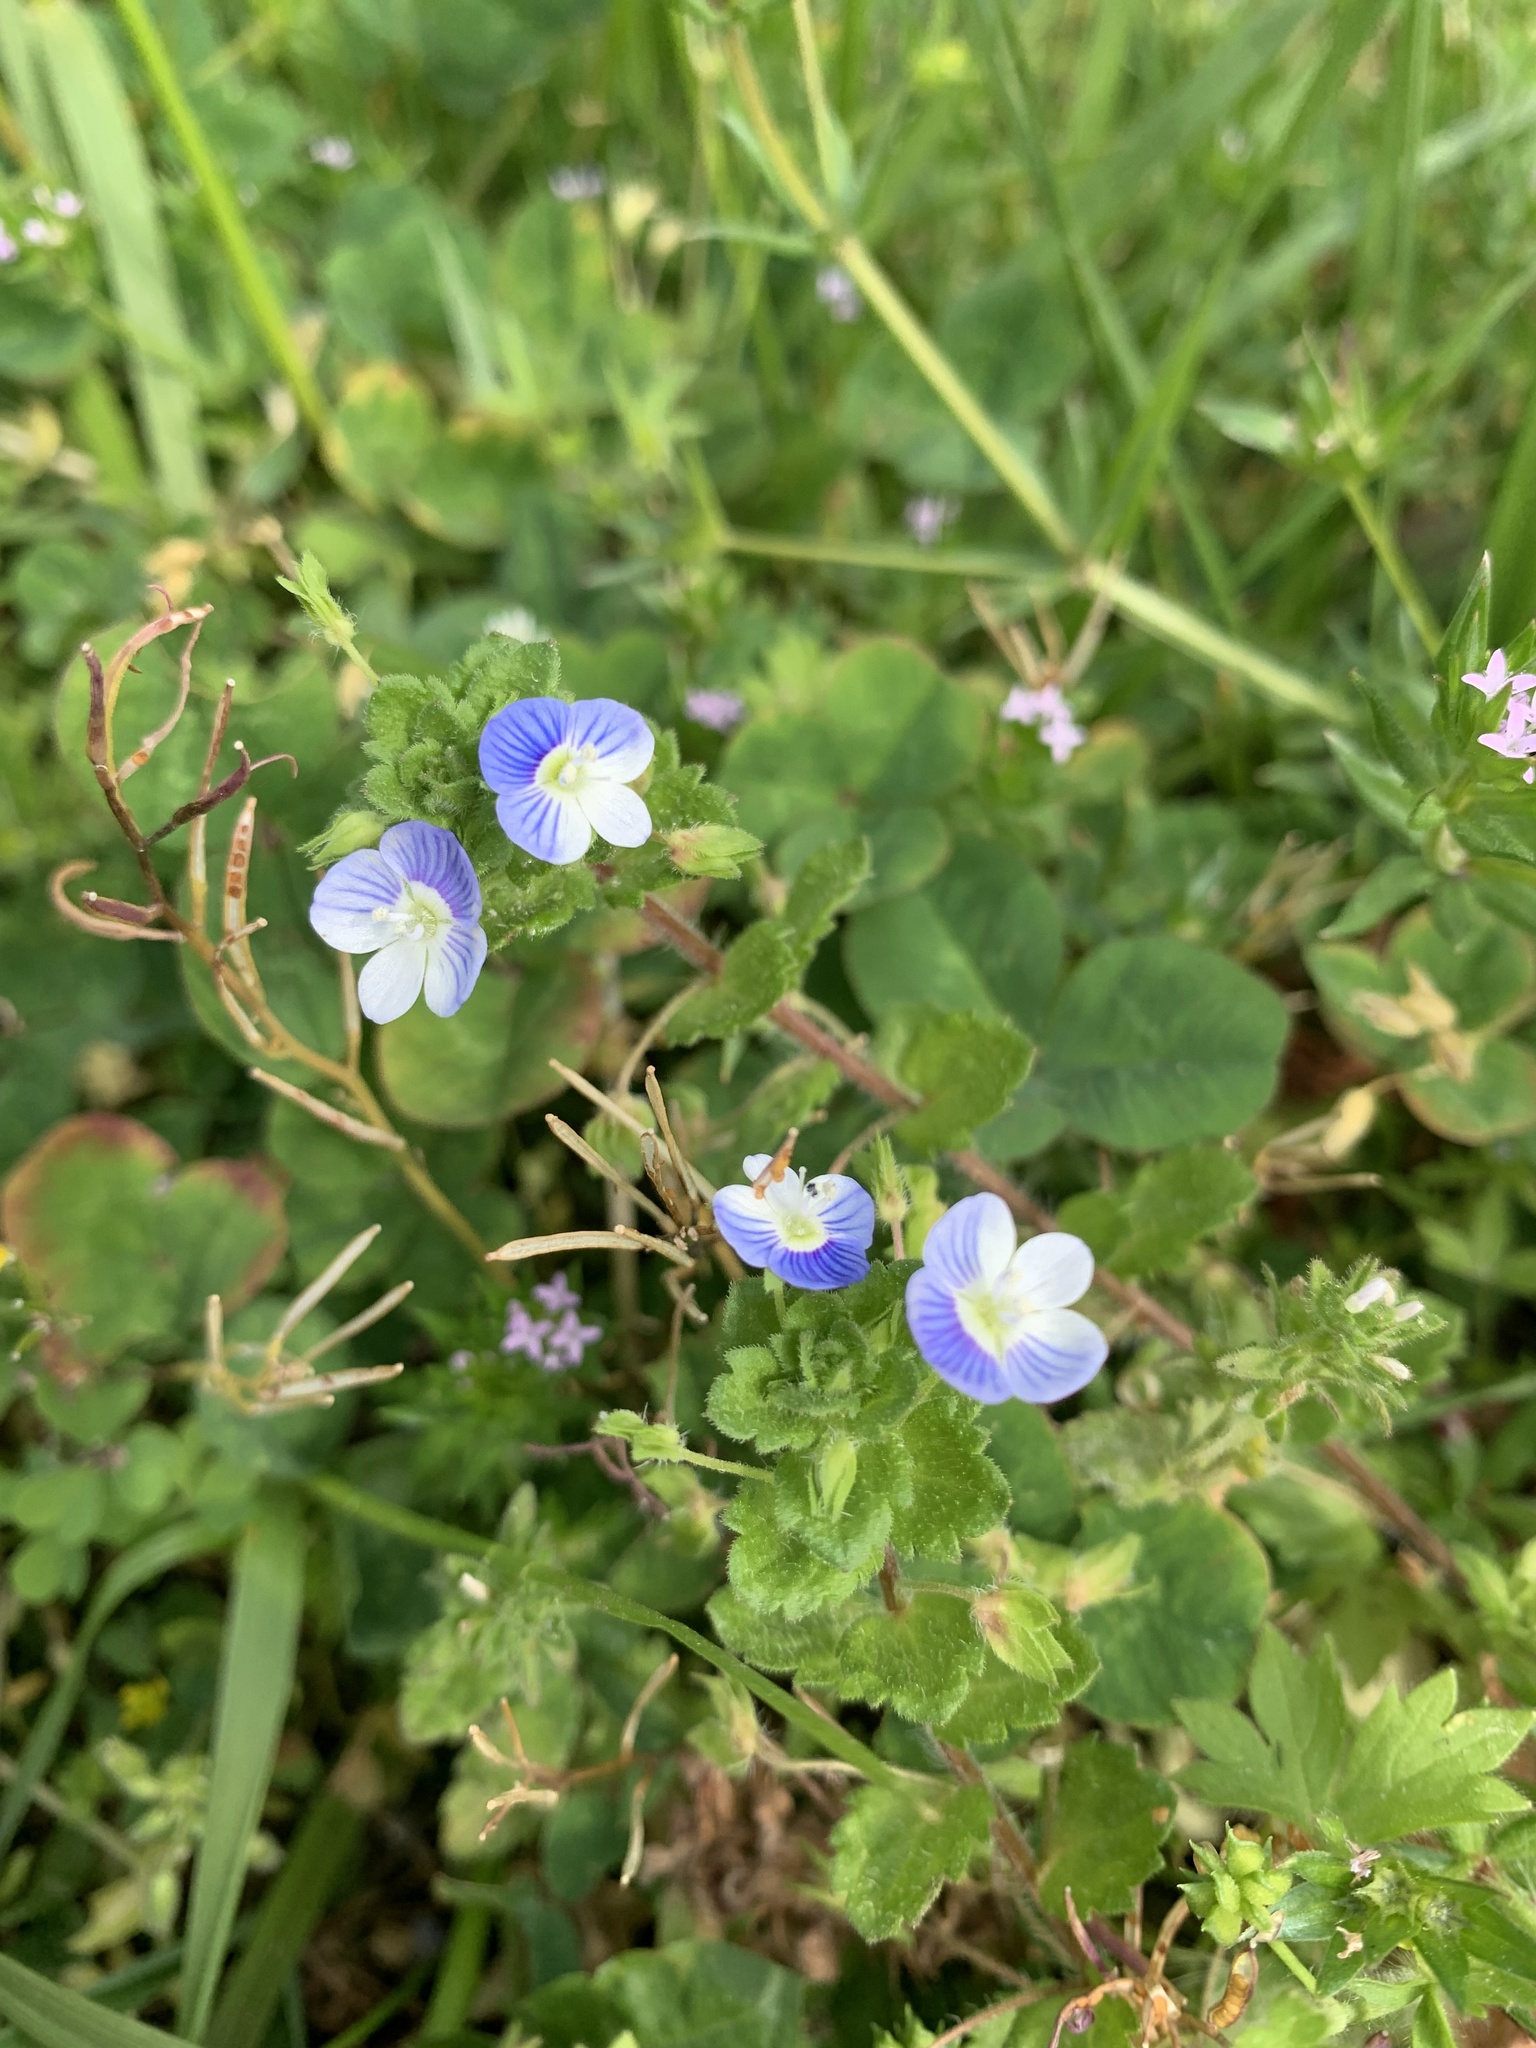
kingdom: Plantae
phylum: Tracheophyta
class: Magnoliopsida
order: Lamiales
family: Plantaginaceae
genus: Veronica
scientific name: Veronica persica
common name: Common field-speedwell
